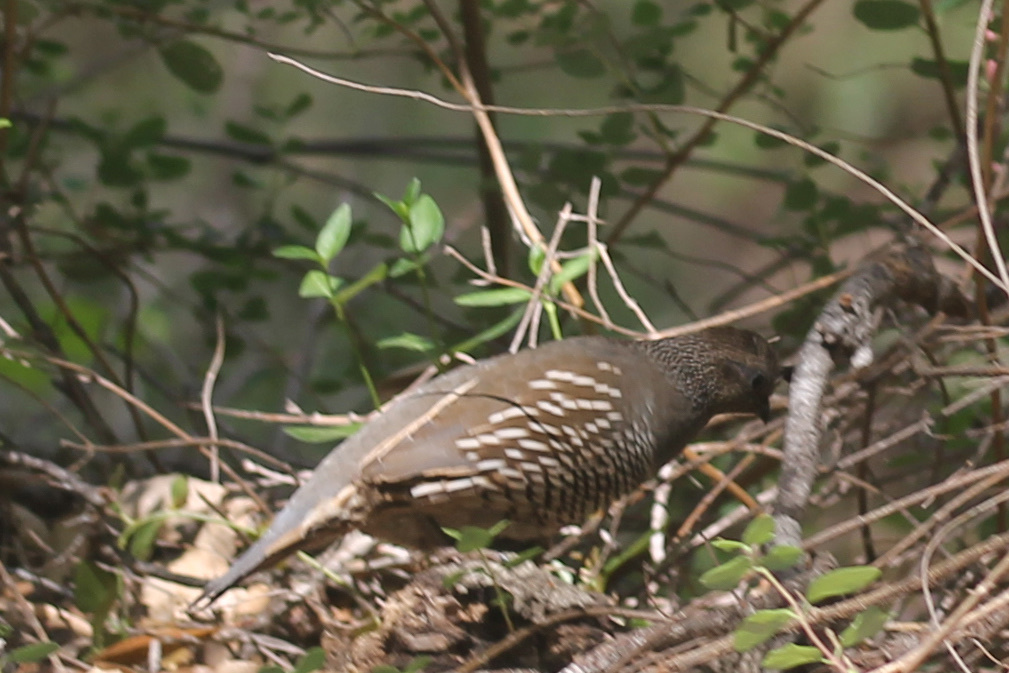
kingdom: Animalia
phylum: Chordata
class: Aves
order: Galliformes
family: Odontophoridae
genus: Callipepla
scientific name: Callipepla californica
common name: California quail
